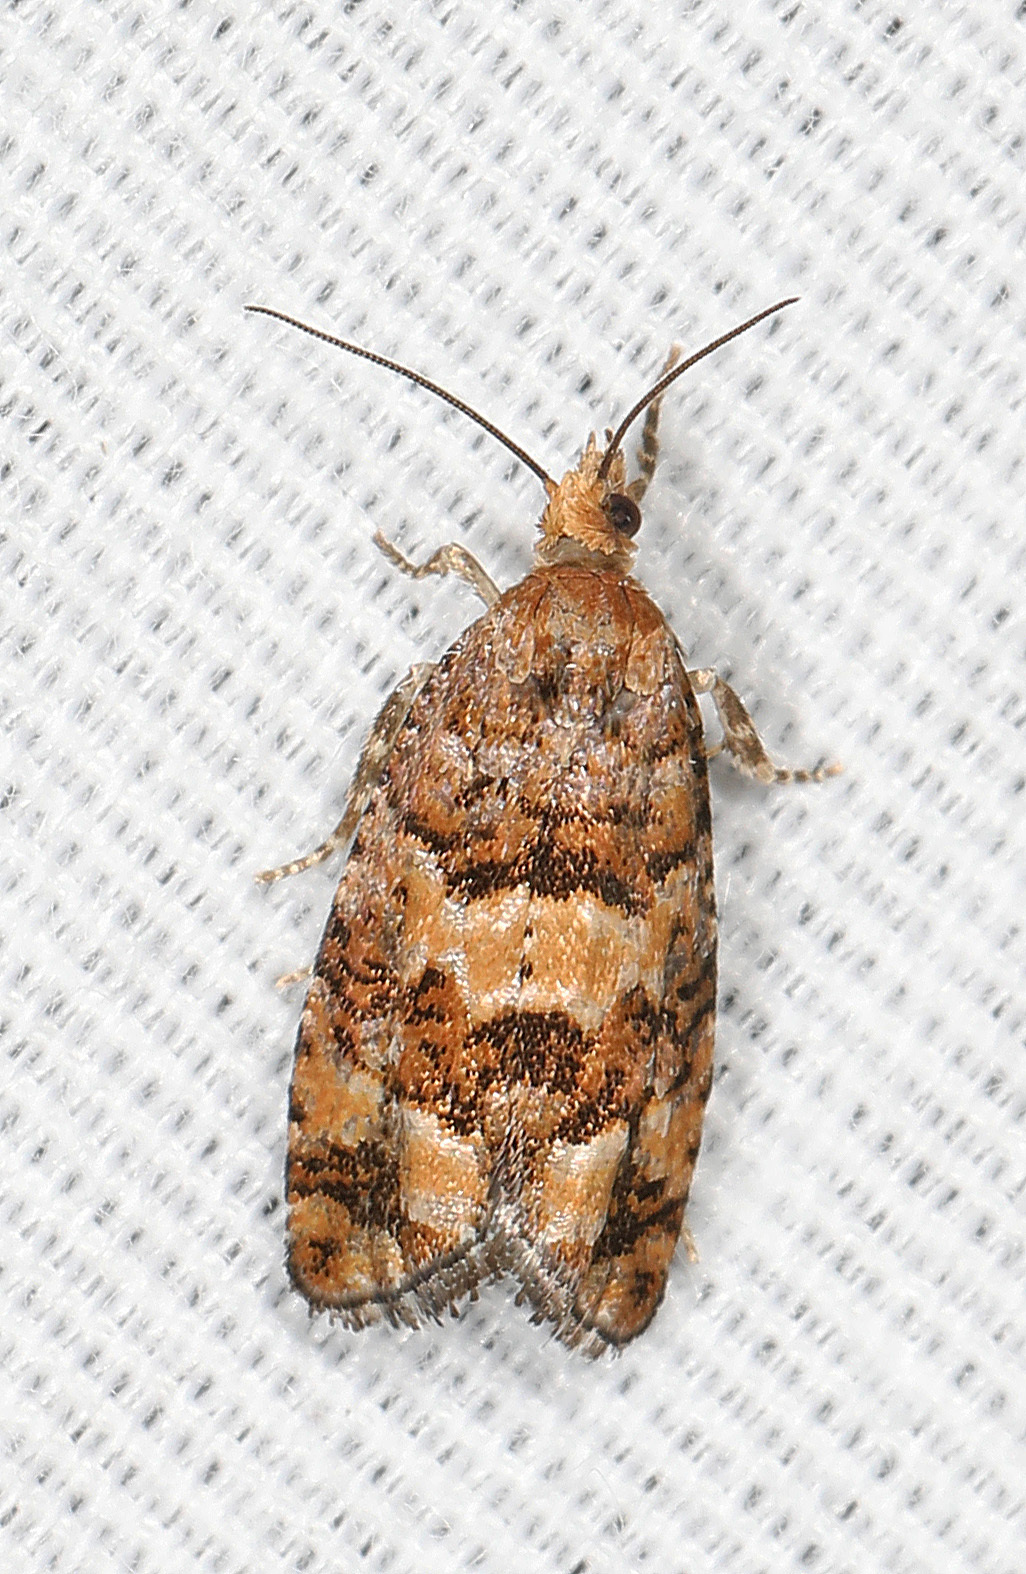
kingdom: Animalia
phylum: Arthropoda
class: Insecta
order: Lepidoptera
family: Tortricidae
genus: Eucopina
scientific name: Eucopina tocullionana
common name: White pinecone borer moth
